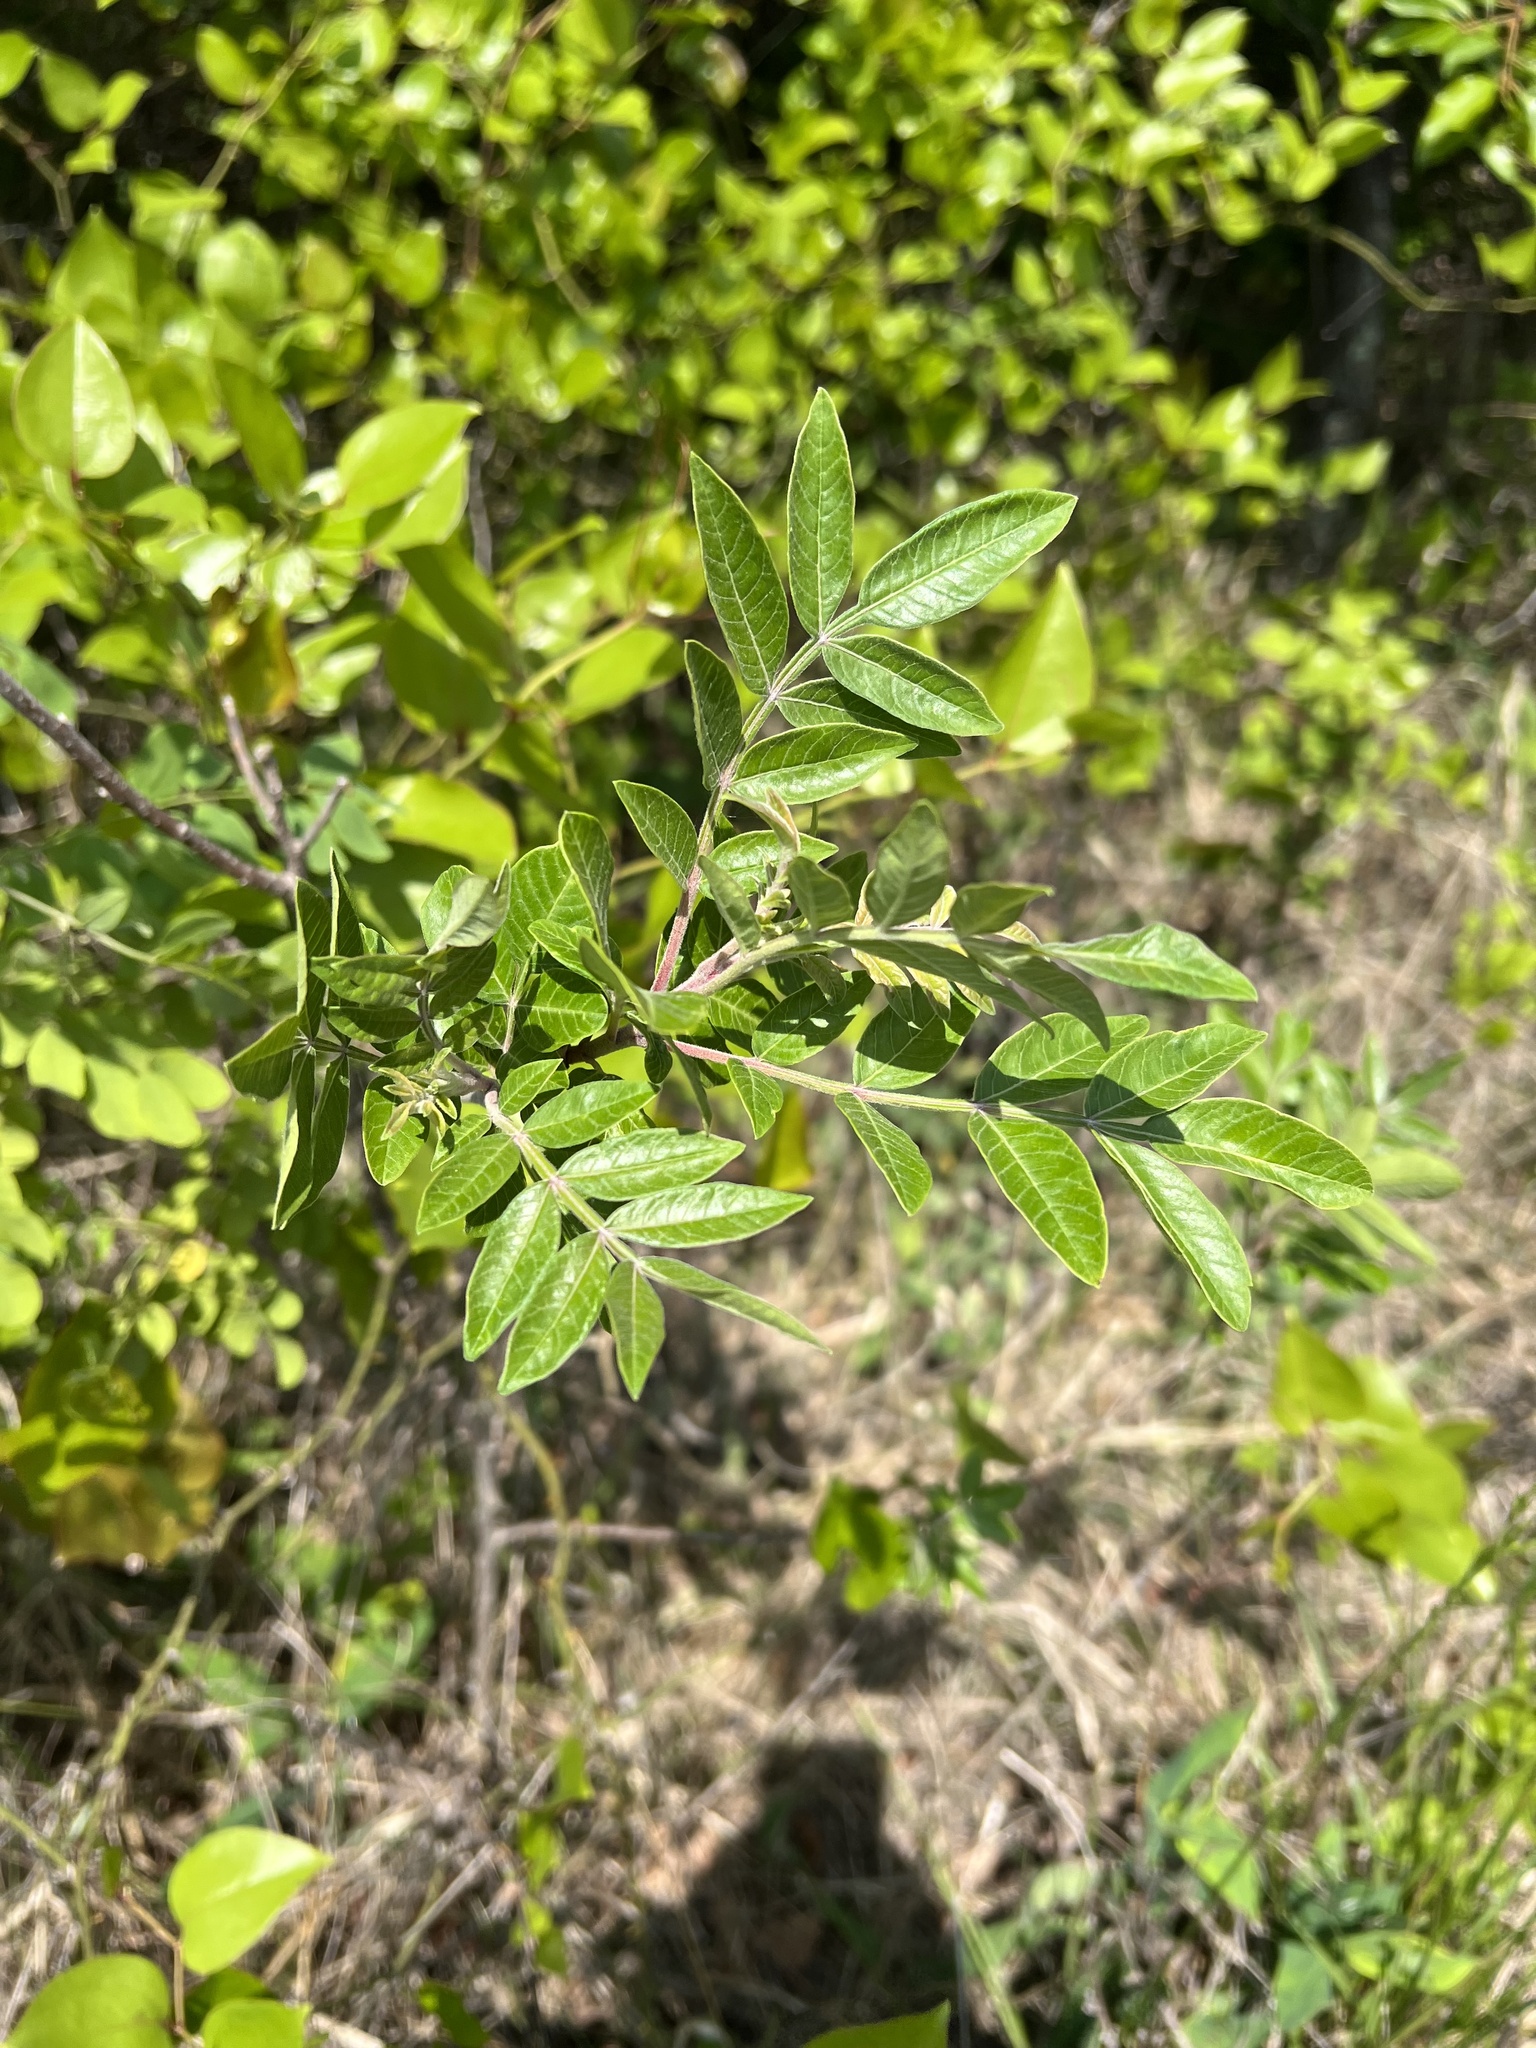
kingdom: Plantae
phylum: Tracheophyta
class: Magnoliopsida
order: Sapindales
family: Anacardiaceae
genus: Rhus
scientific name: Rhus copallina
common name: Shining sumac
